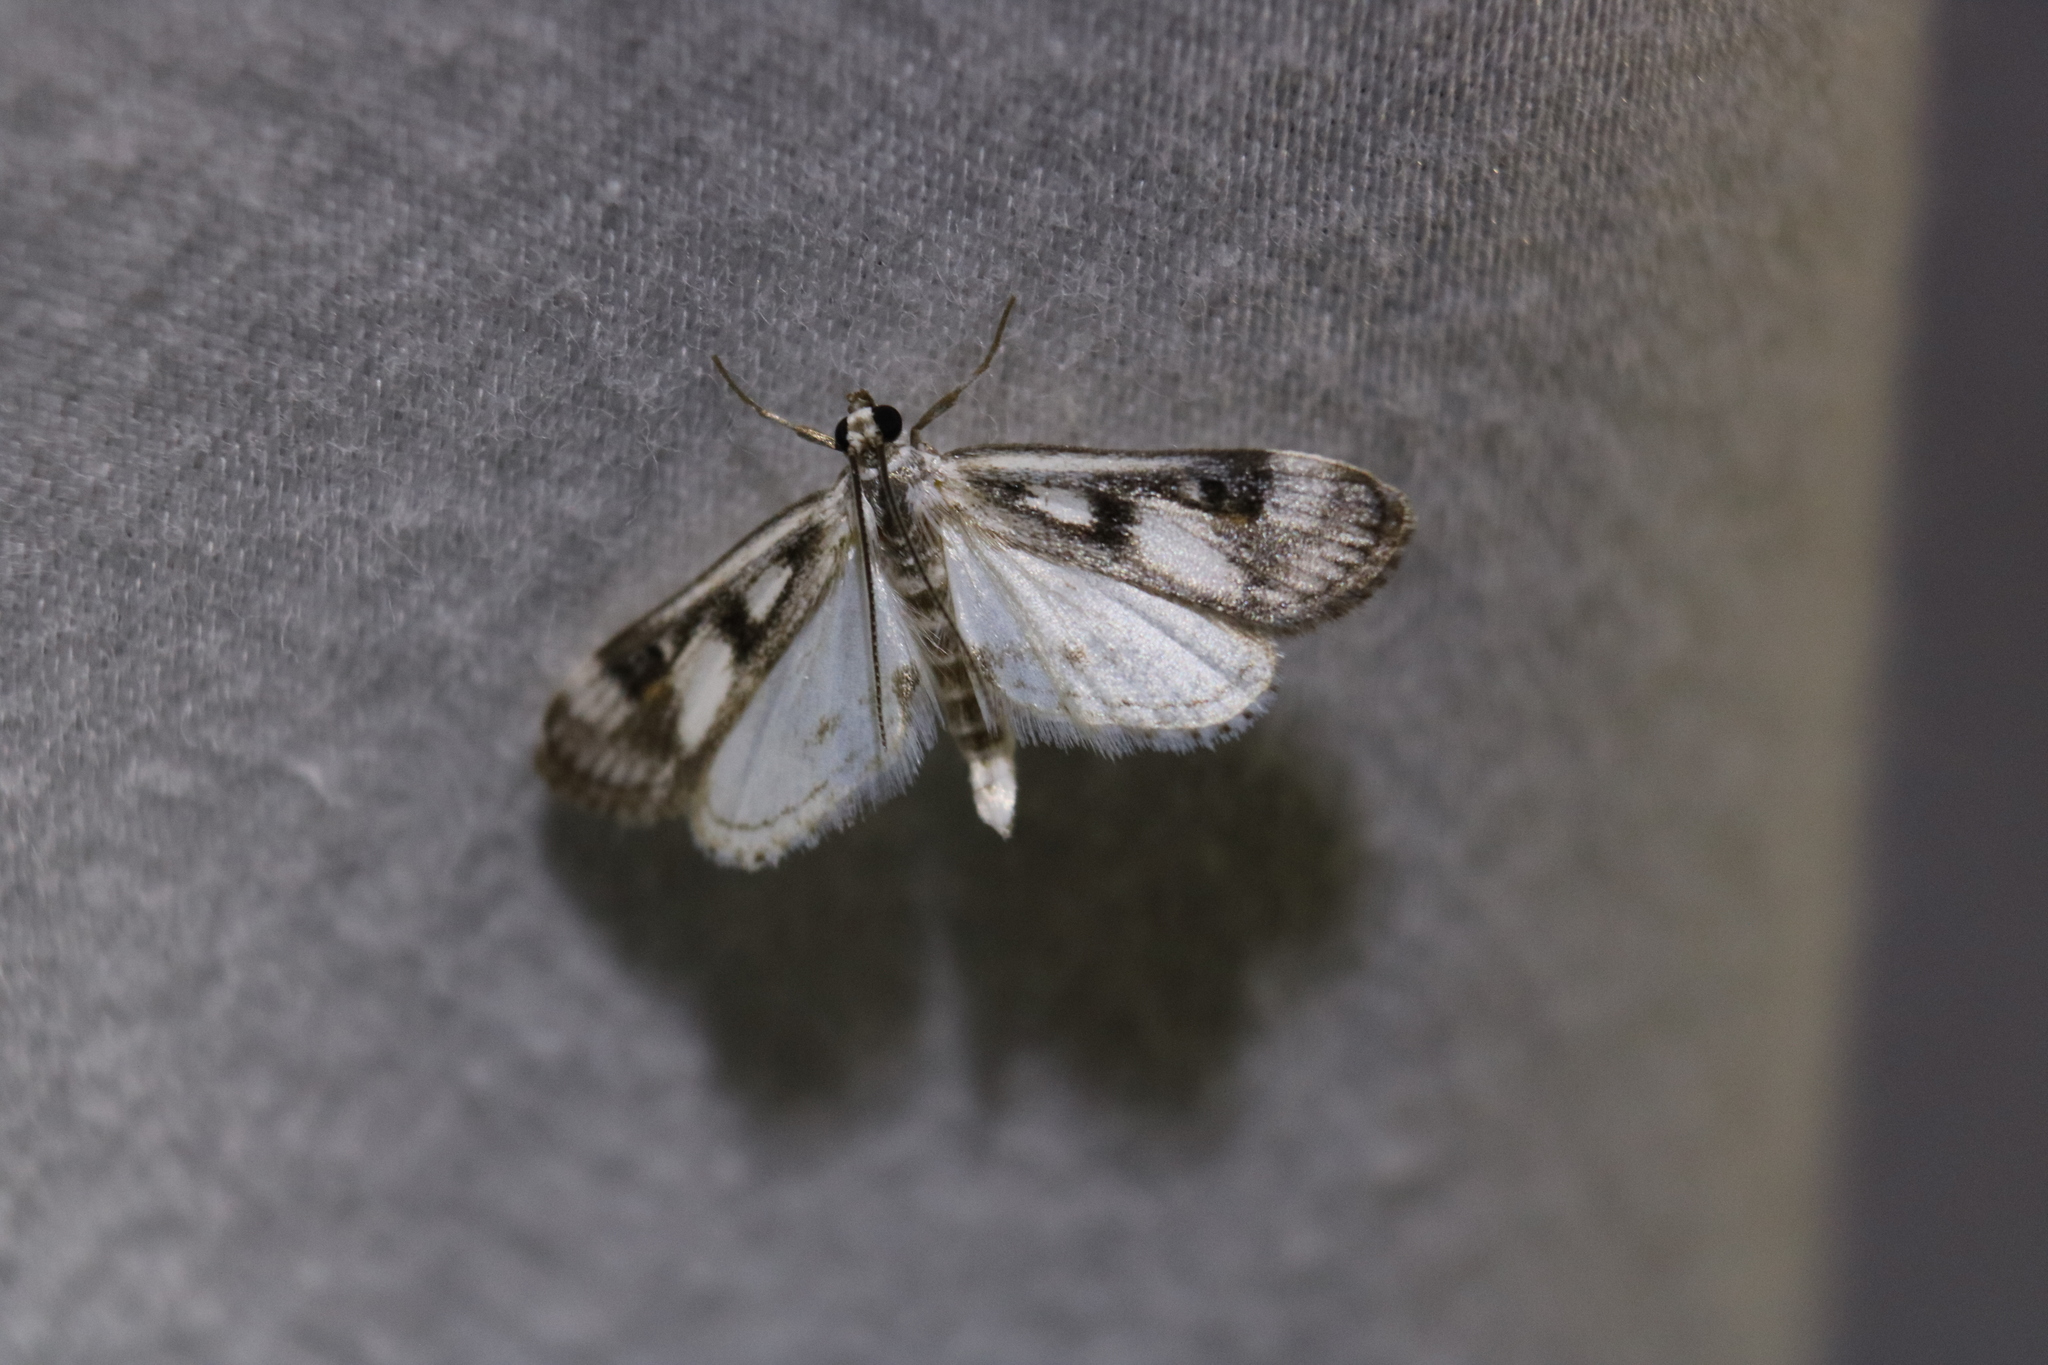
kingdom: Animalia
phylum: Arthropoda
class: Insecta
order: Lepidoptera
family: Crambidae
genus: Parapoynx
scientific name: Parapoynx maculalis
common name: Polymorphic pondweed moth
